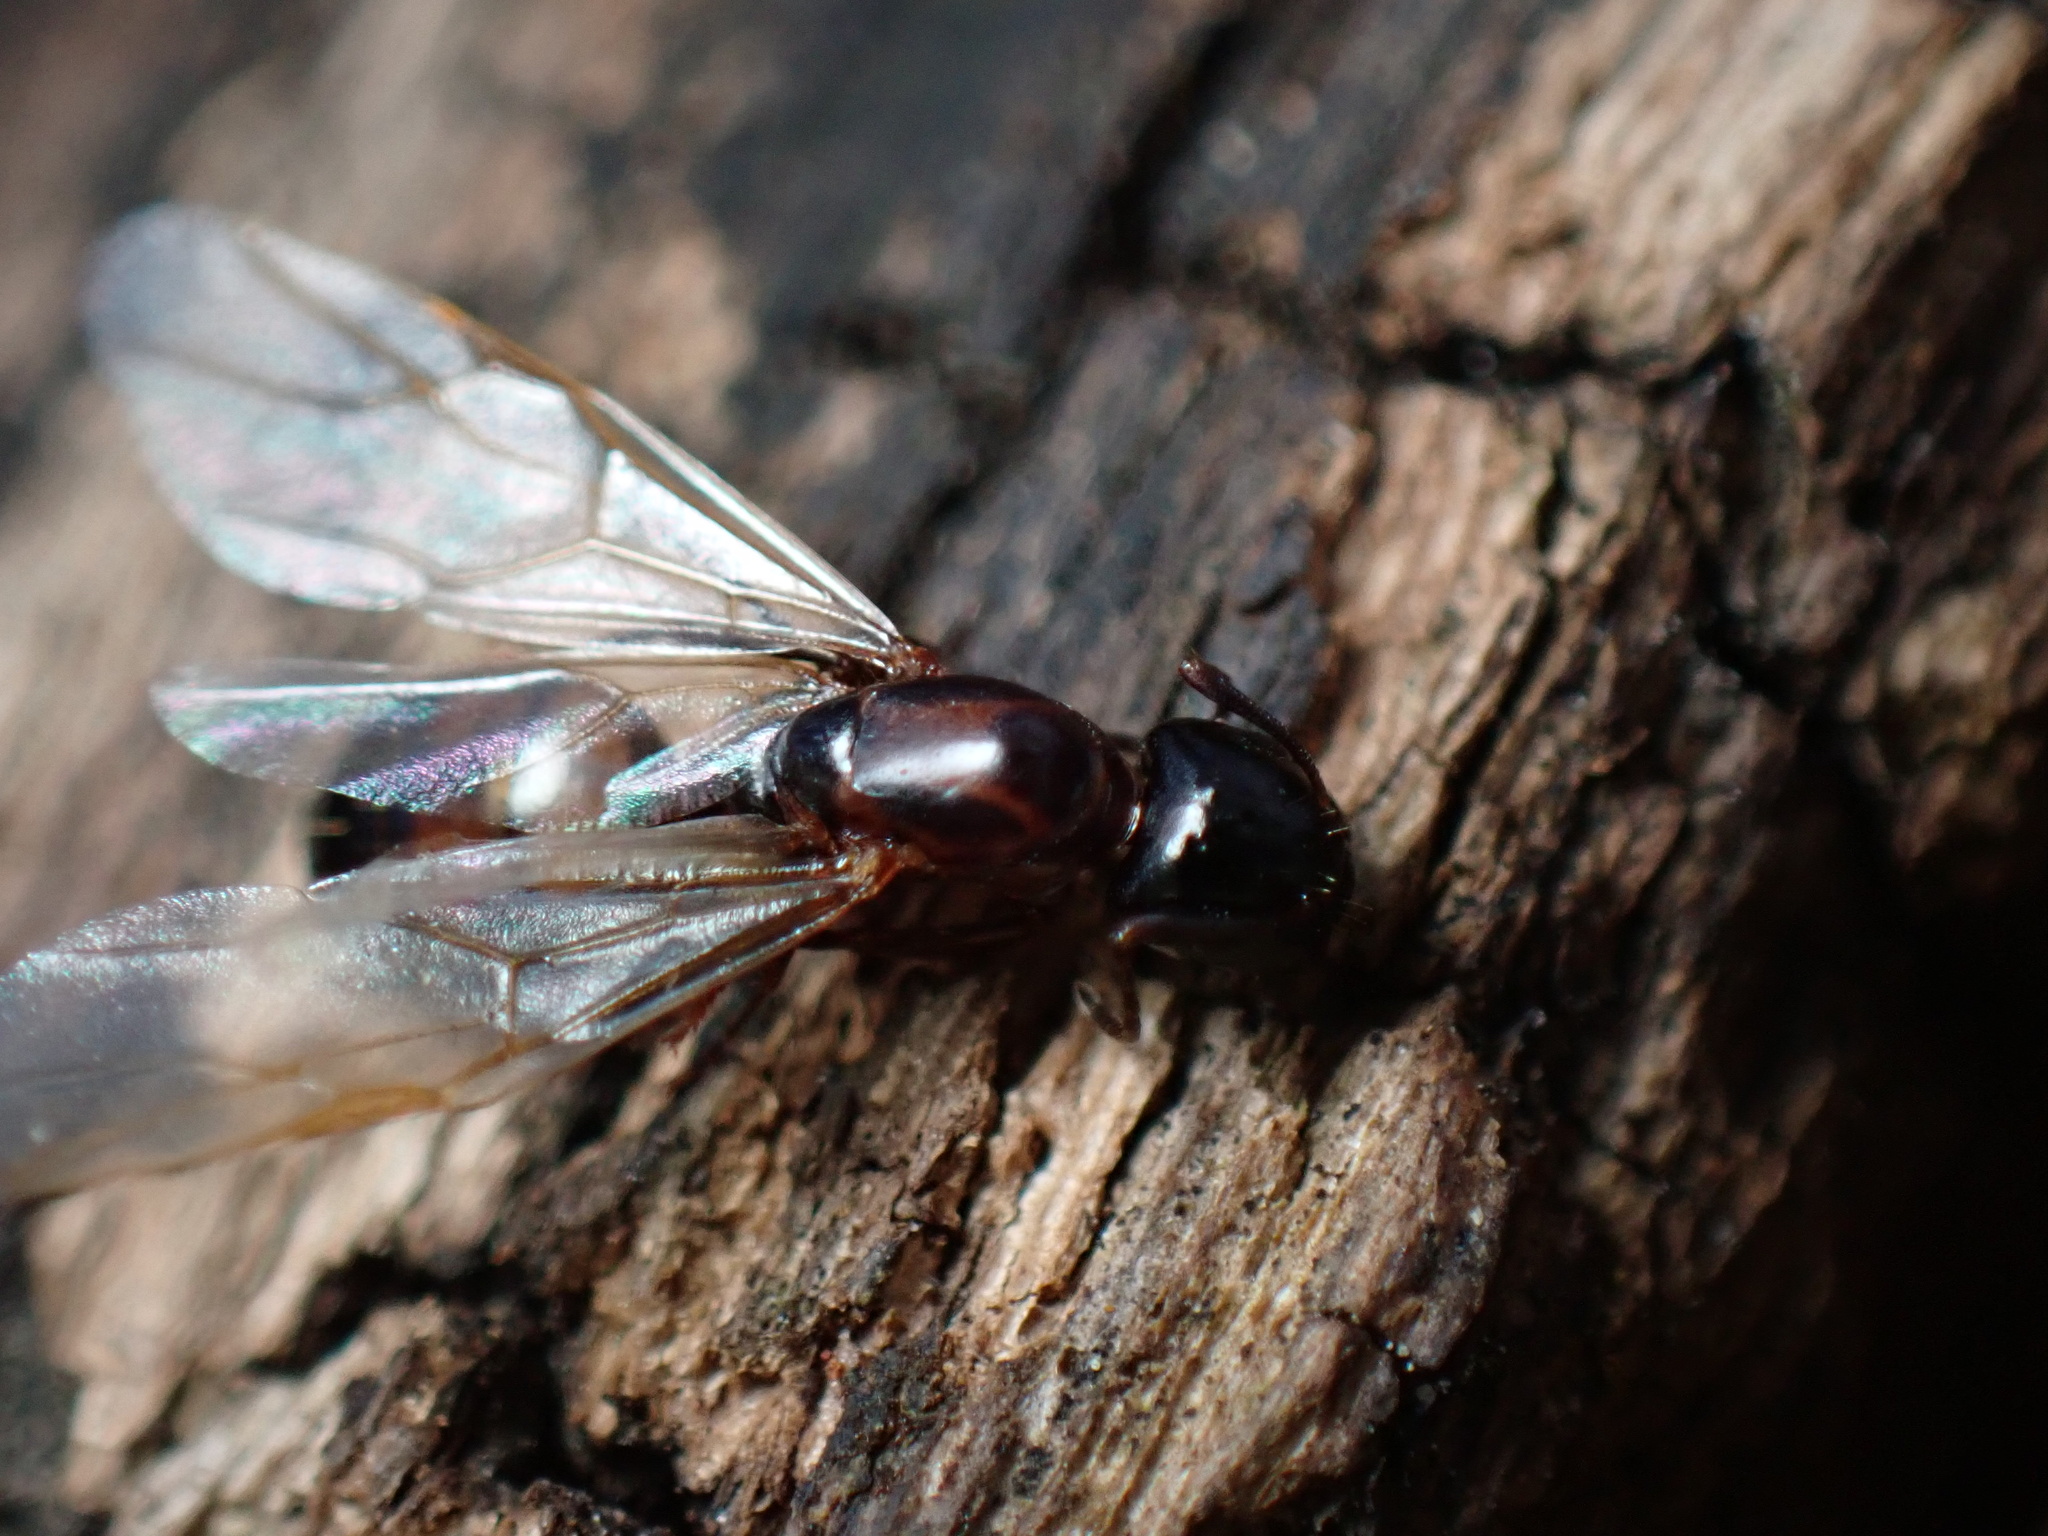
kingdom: Animalia
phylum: Arthropoda
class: Insecta
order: Hymenoptera
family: Formicidae
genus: Camponotus
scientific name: Camponotus nearcticus
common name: Smaller carpenter ant
